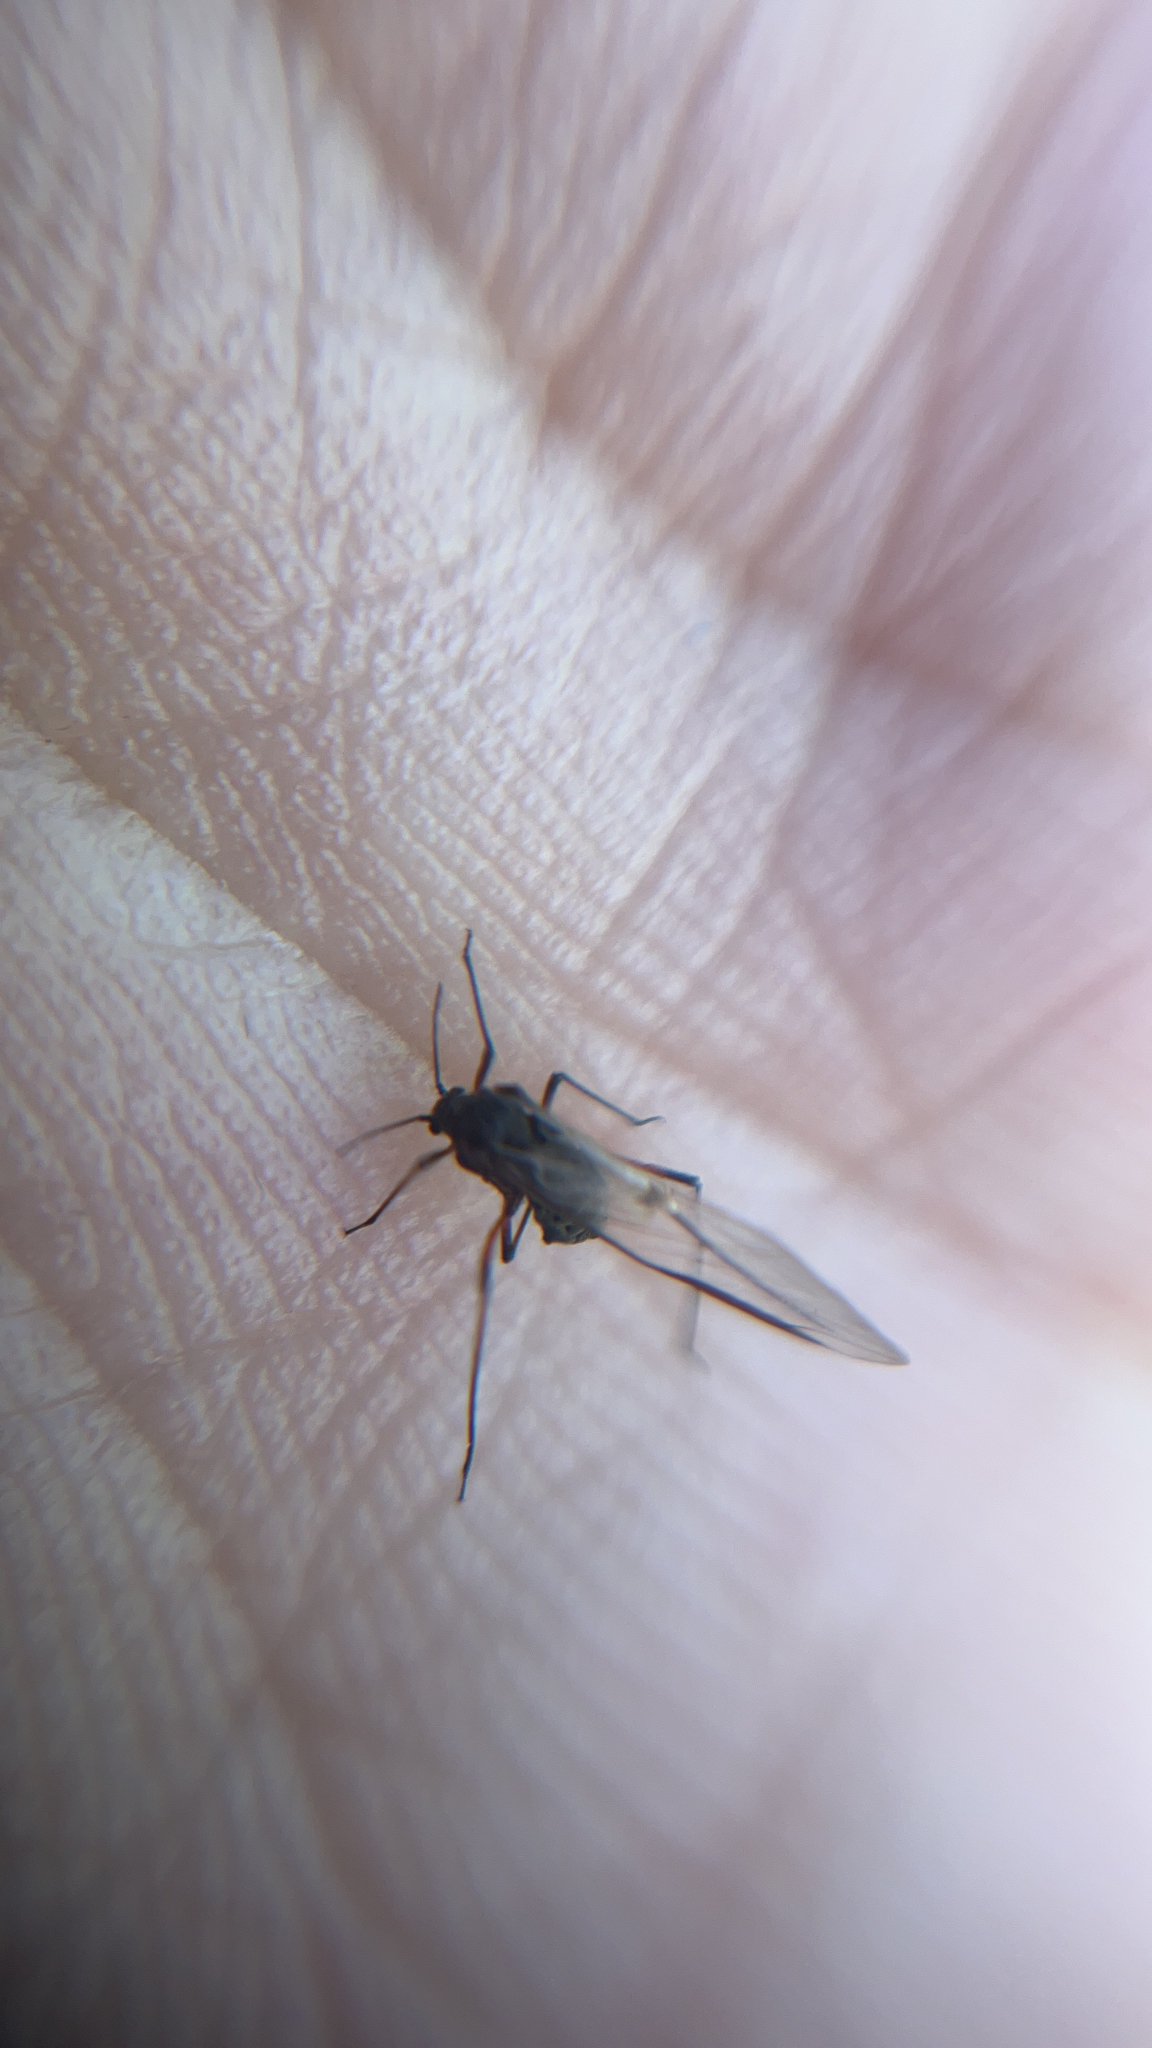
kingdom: Animalia
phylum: Arthropoda
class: Insecta
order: Hemiptera
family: Aphididae
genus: Tuberolachnus
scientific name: Tuberolachnus salignus
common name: Giant willow aphid
